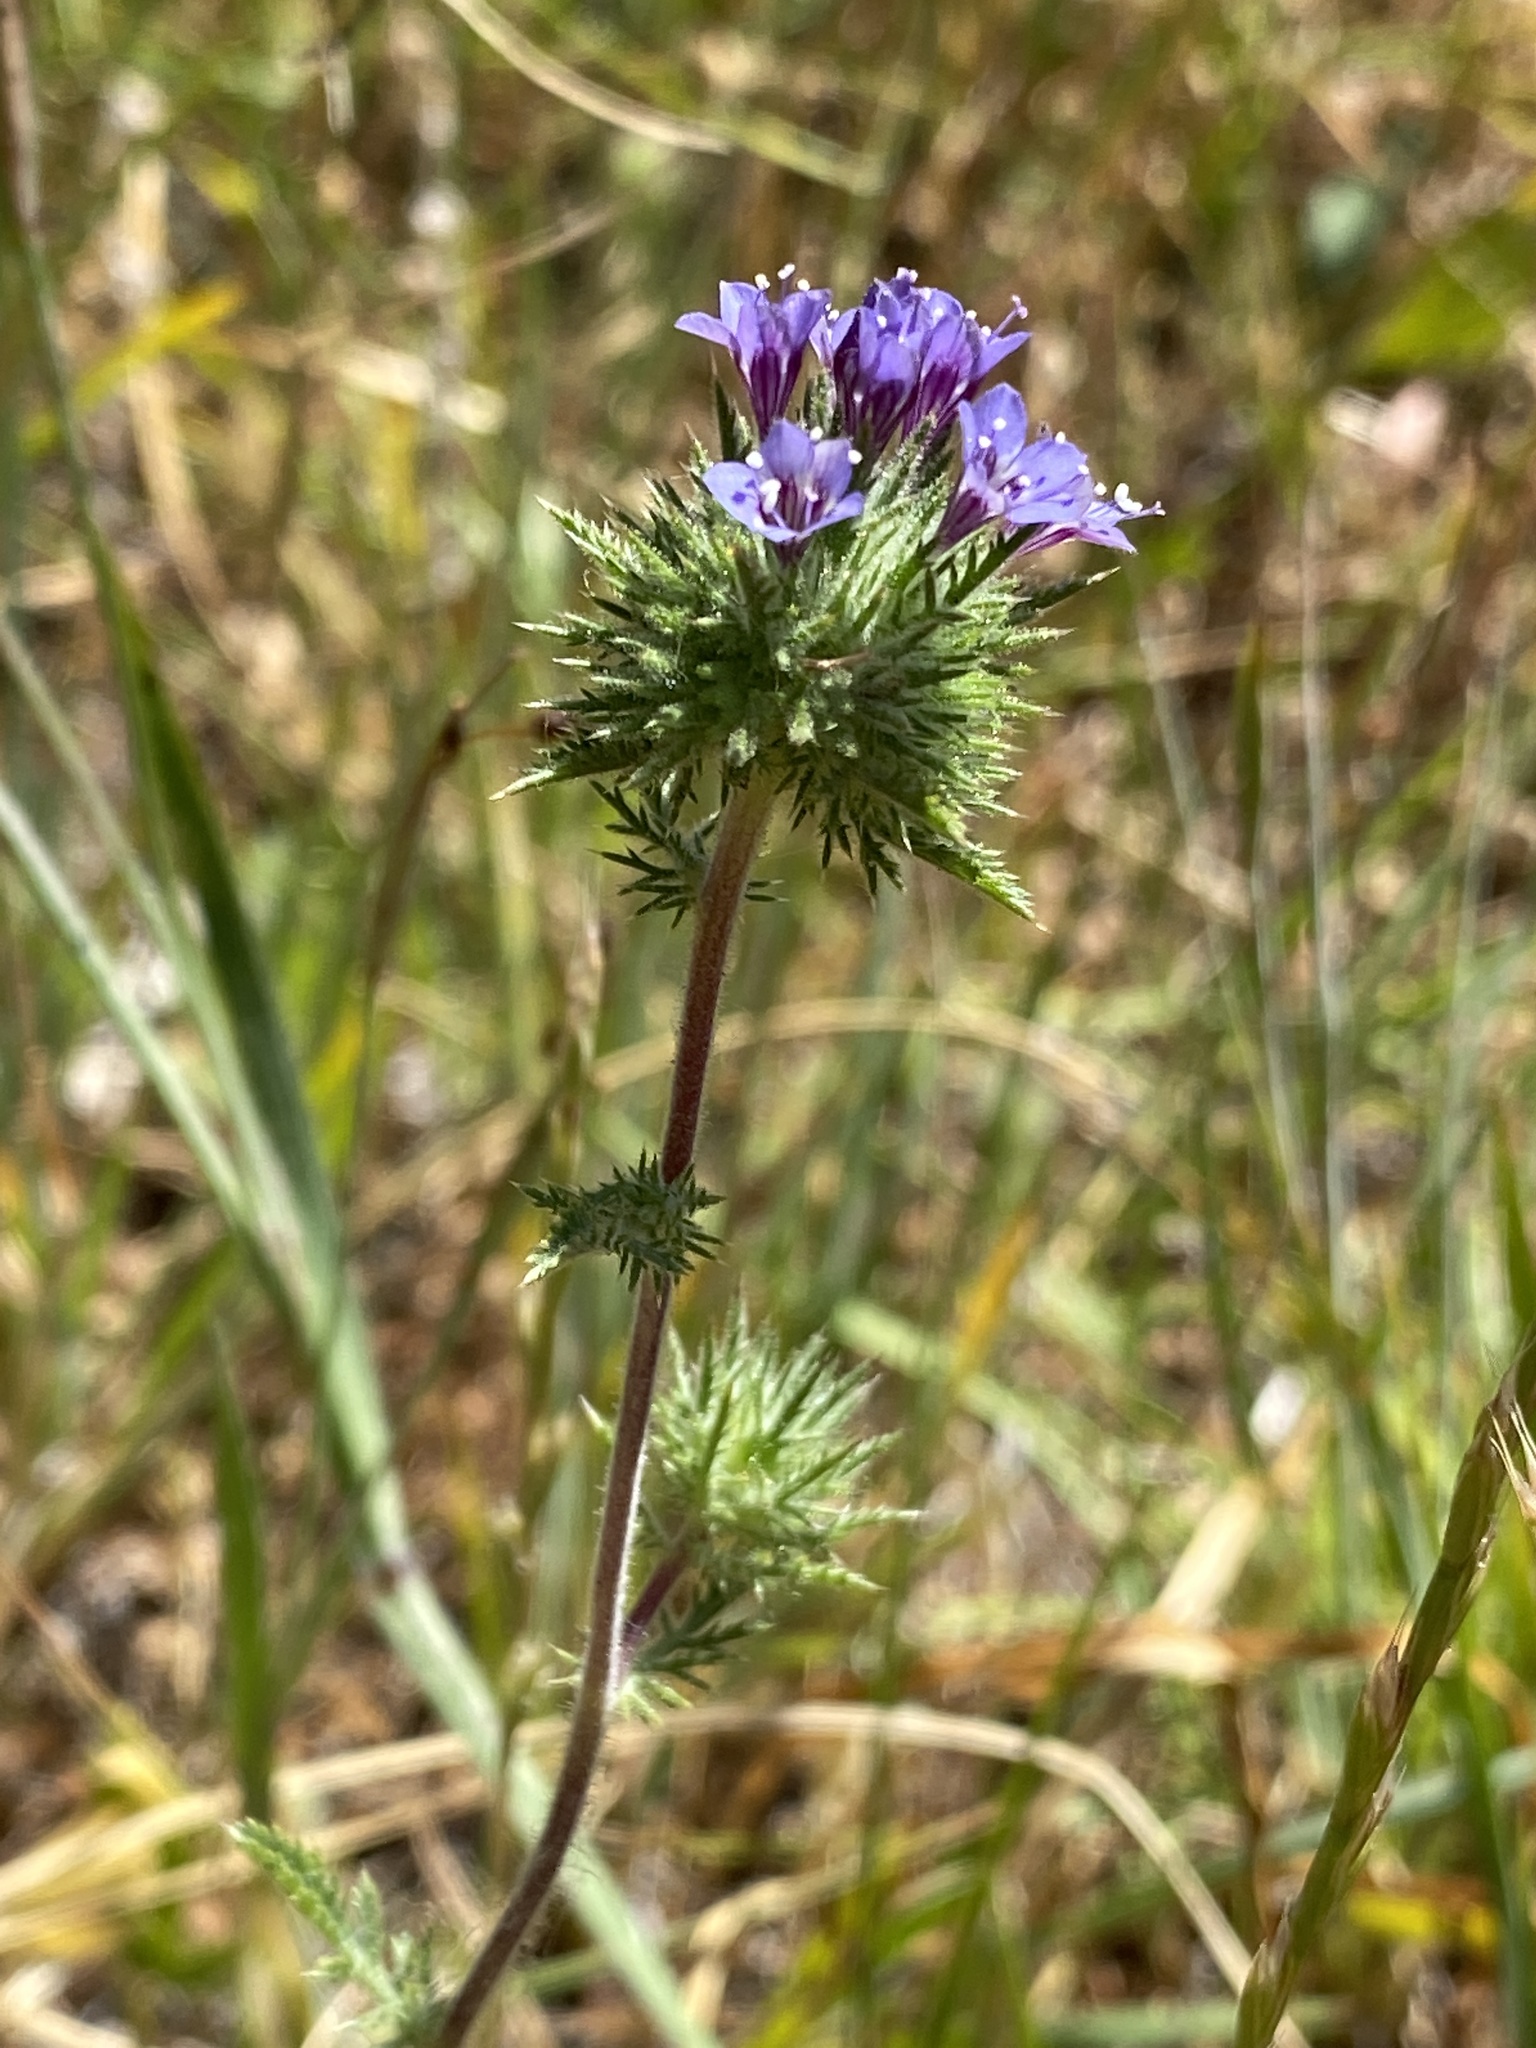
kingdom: Plantae
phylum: Tracheophyta
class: Magnoliopsida
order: Ericales
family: Polemoniaceae
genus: Navarretia
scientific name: Navarretia pubescens
